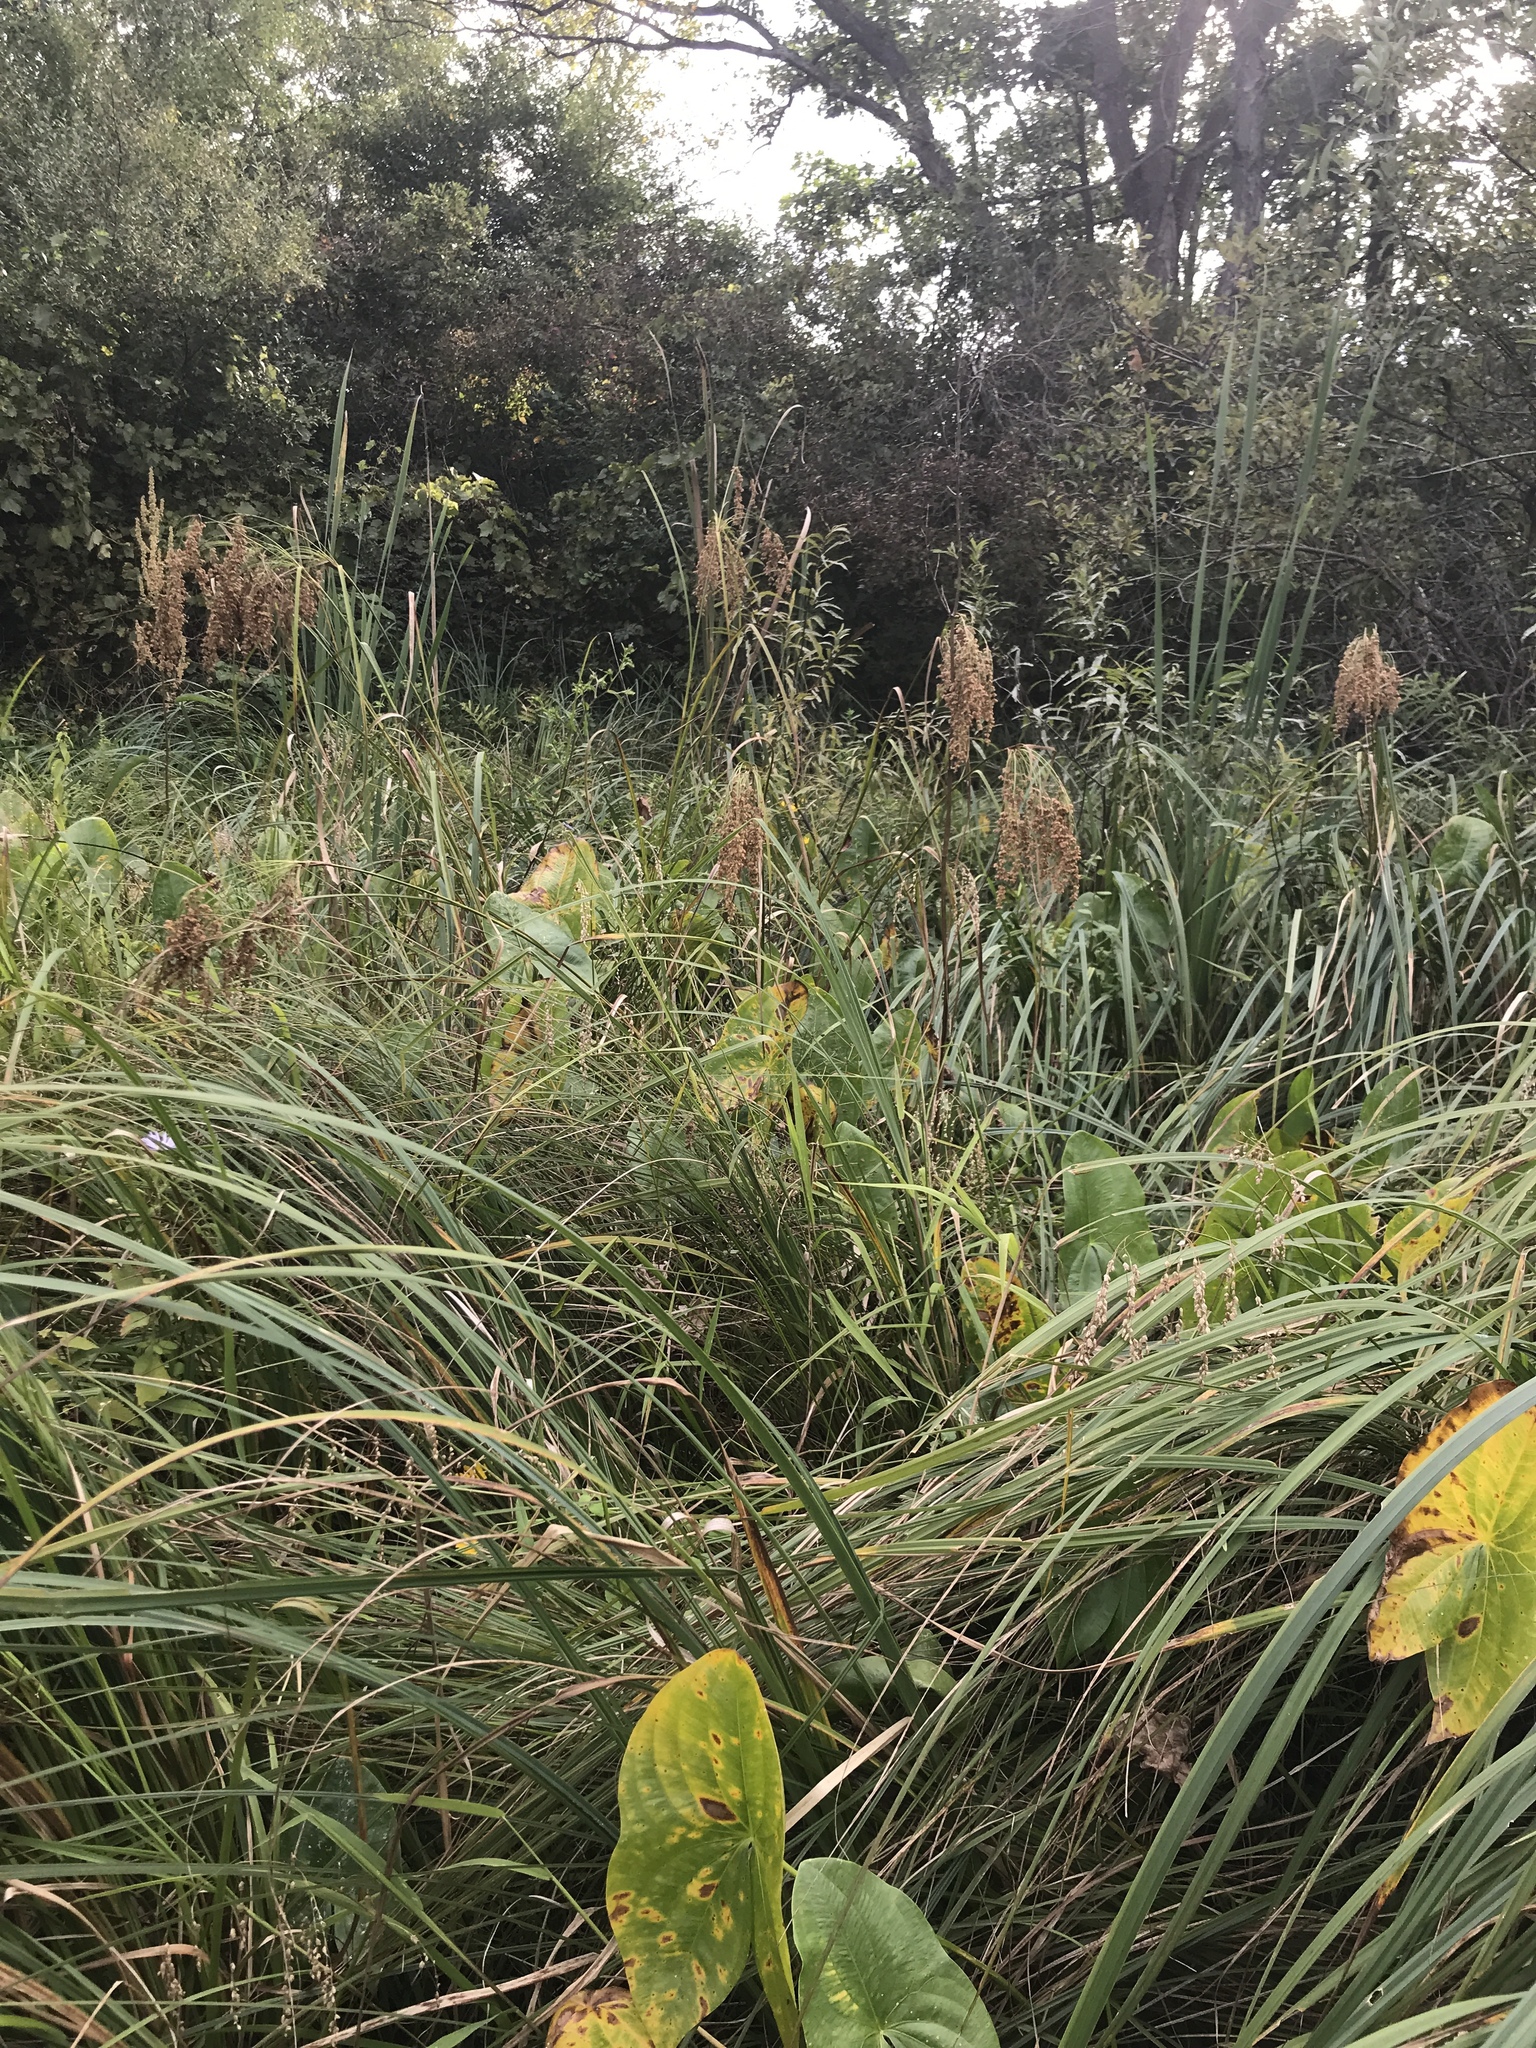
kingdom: Plantae
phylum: Tracheophyta
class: Liliopsida
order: Poales
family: Cyperaceae
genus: Scirpus
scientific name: Scirpus cyperinus
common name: Black-sheathed bulrush
